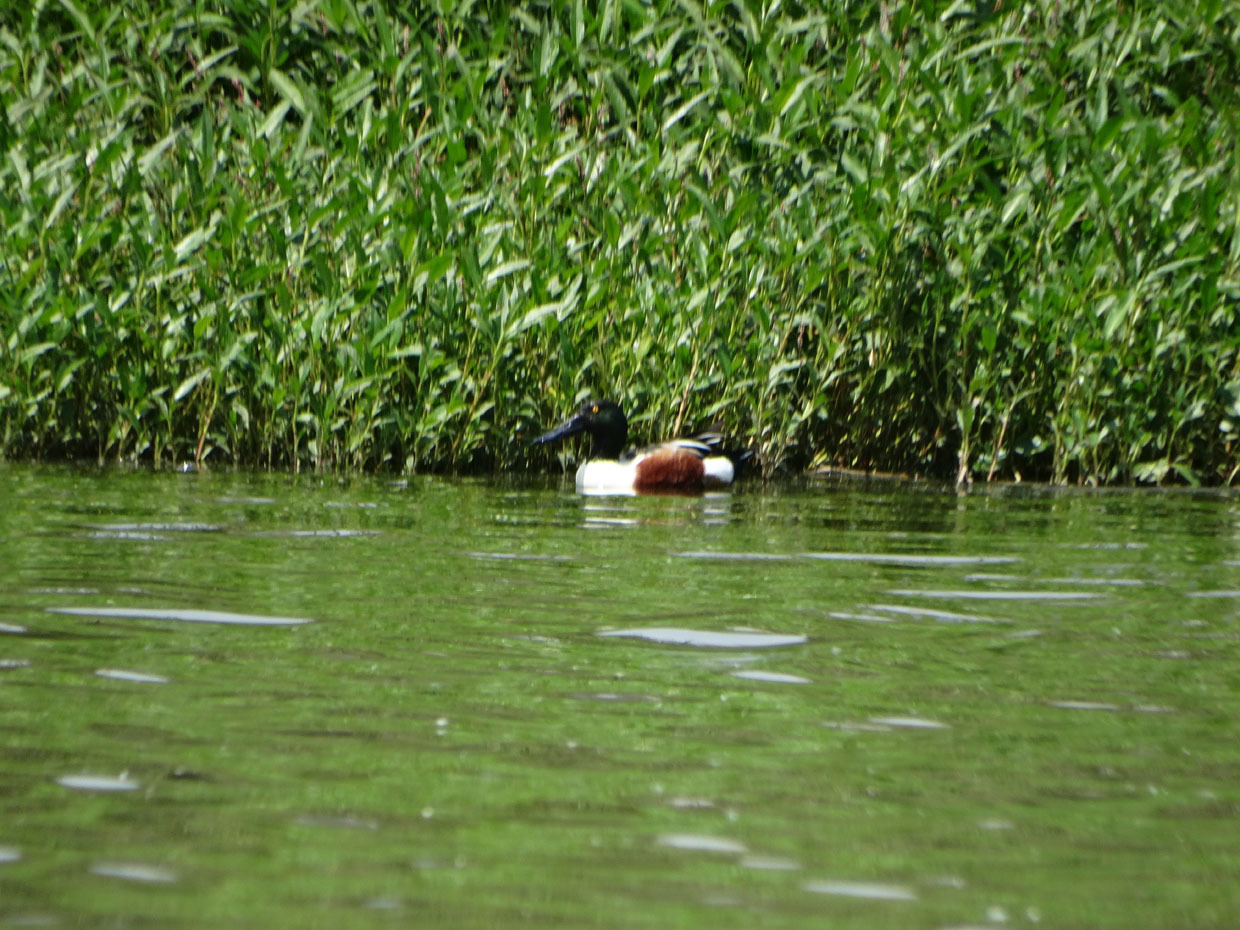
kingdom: Animalia
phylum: Chordata
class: Aves
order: Anseriformes
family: Anatidae
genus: Spatula
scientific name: Spatula clypeata
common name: Northern shoveler
